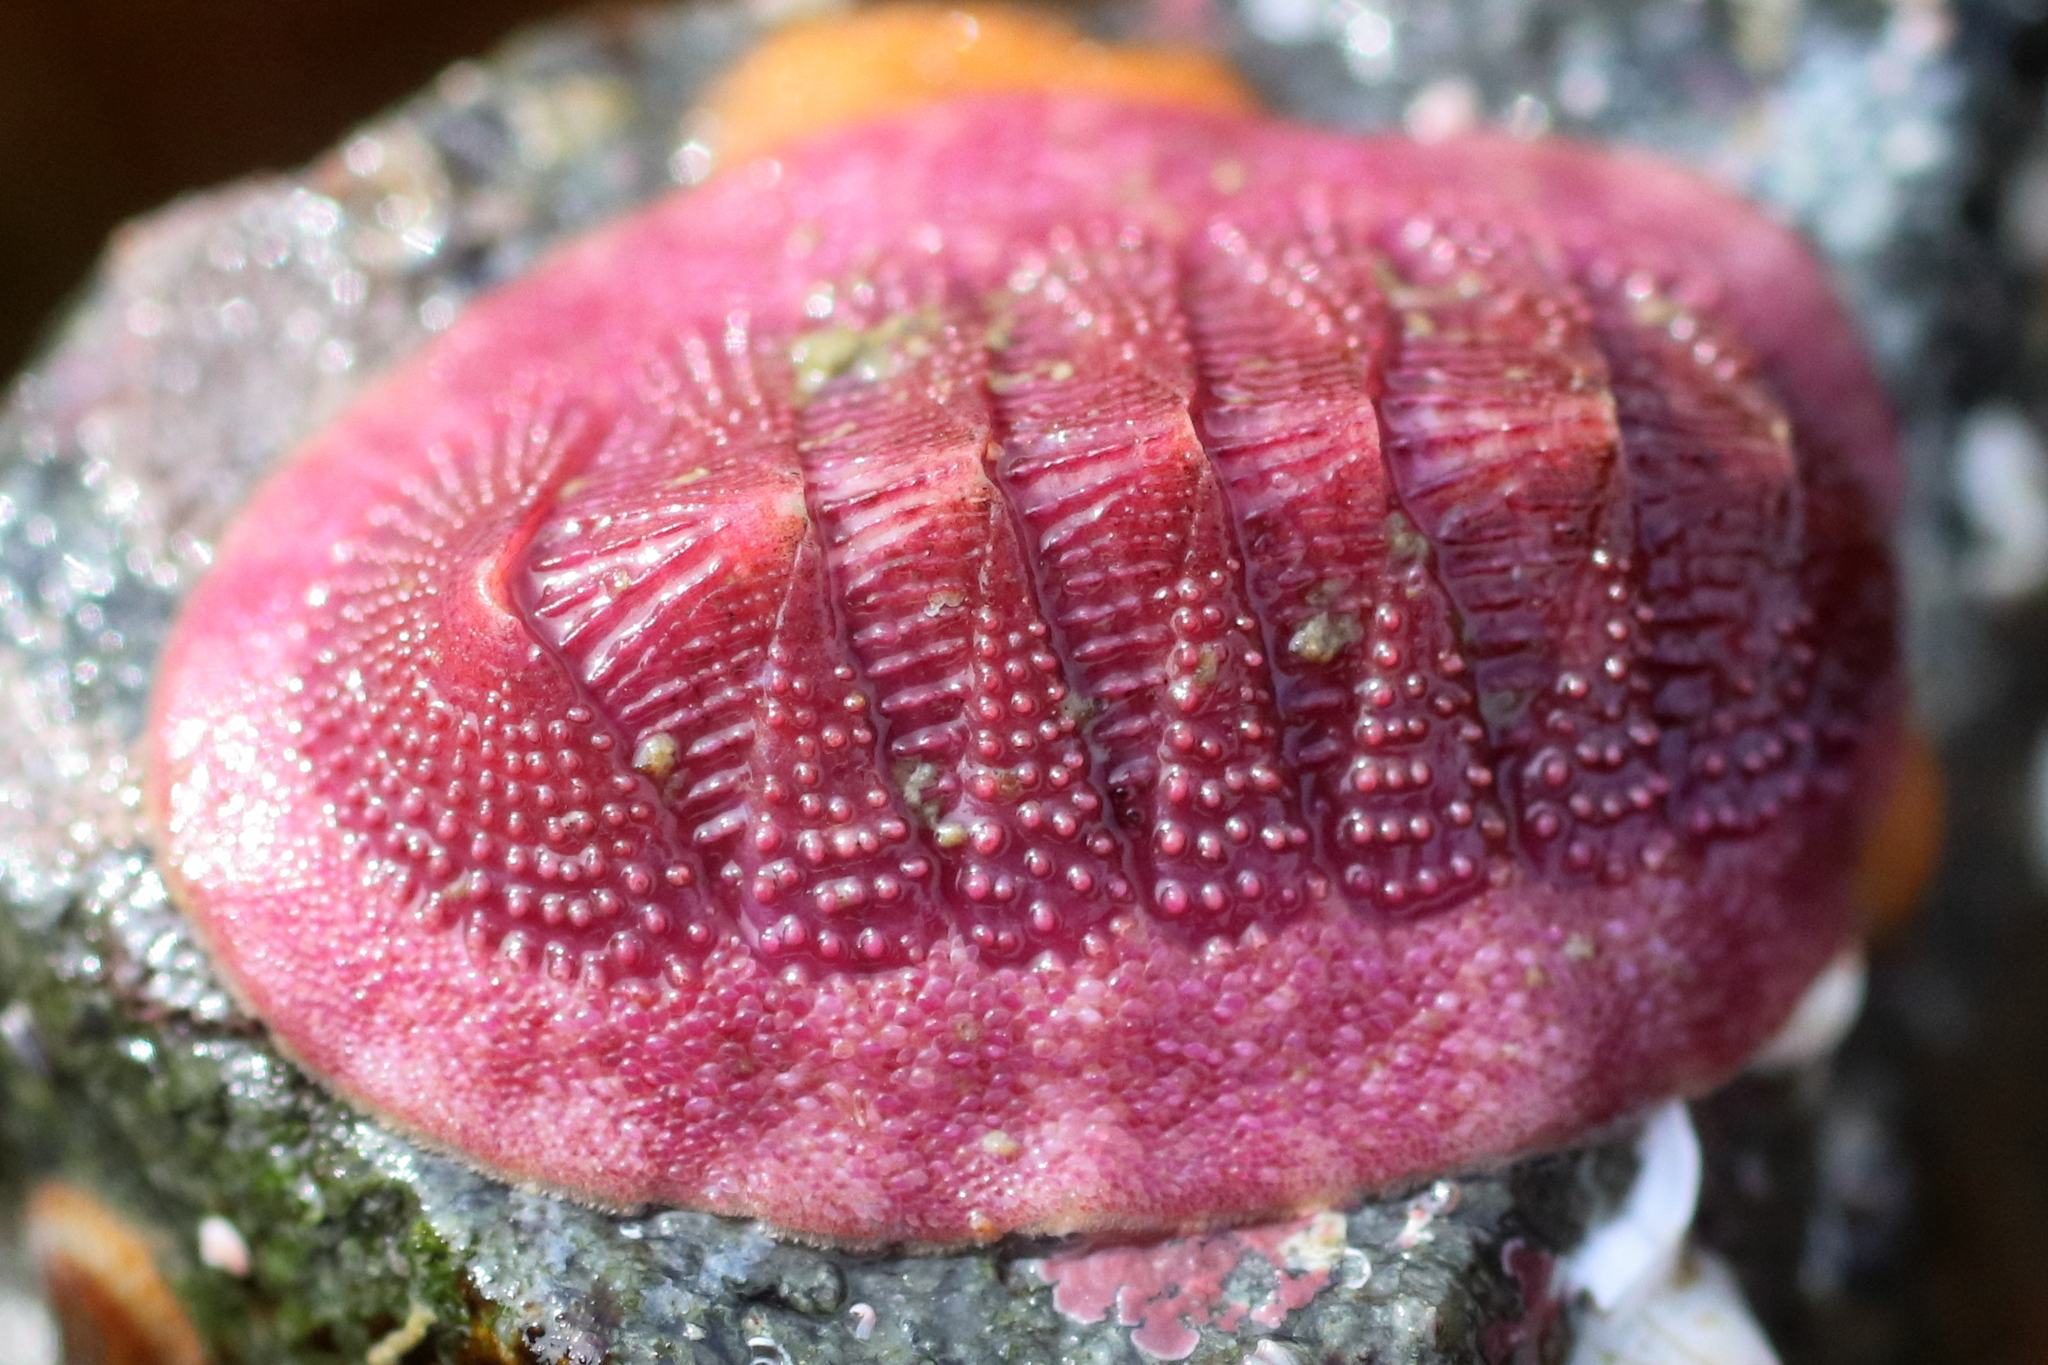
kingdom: Animalia
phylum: Mollusca
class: Polyplacophora
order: Chitonida
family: Ischnochitonidae
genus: Lepidozona
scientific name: Lepidozona mertensii
